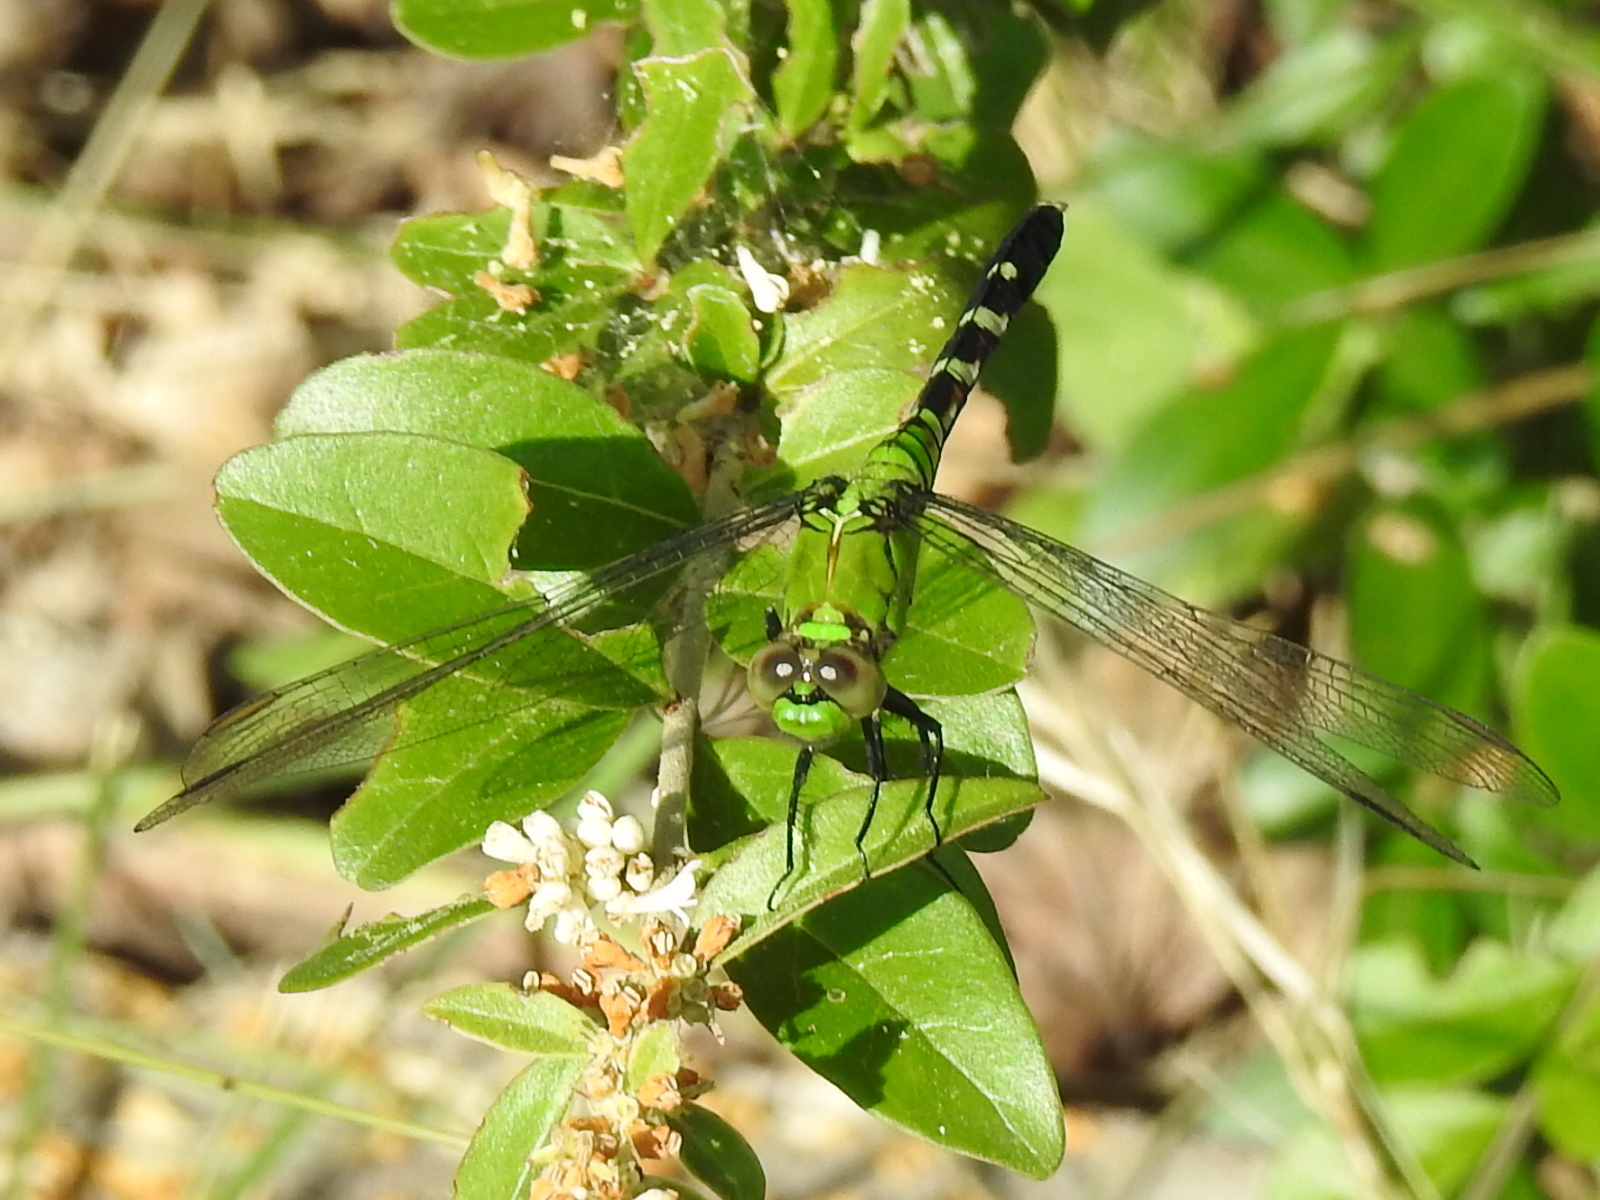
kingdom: Animalia
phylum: Arthropoda
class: Insecta
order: Odonata
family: Libellulidae
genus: Erythemis
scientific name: Erythemis simplicicollis
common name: Eastern pondhawk
